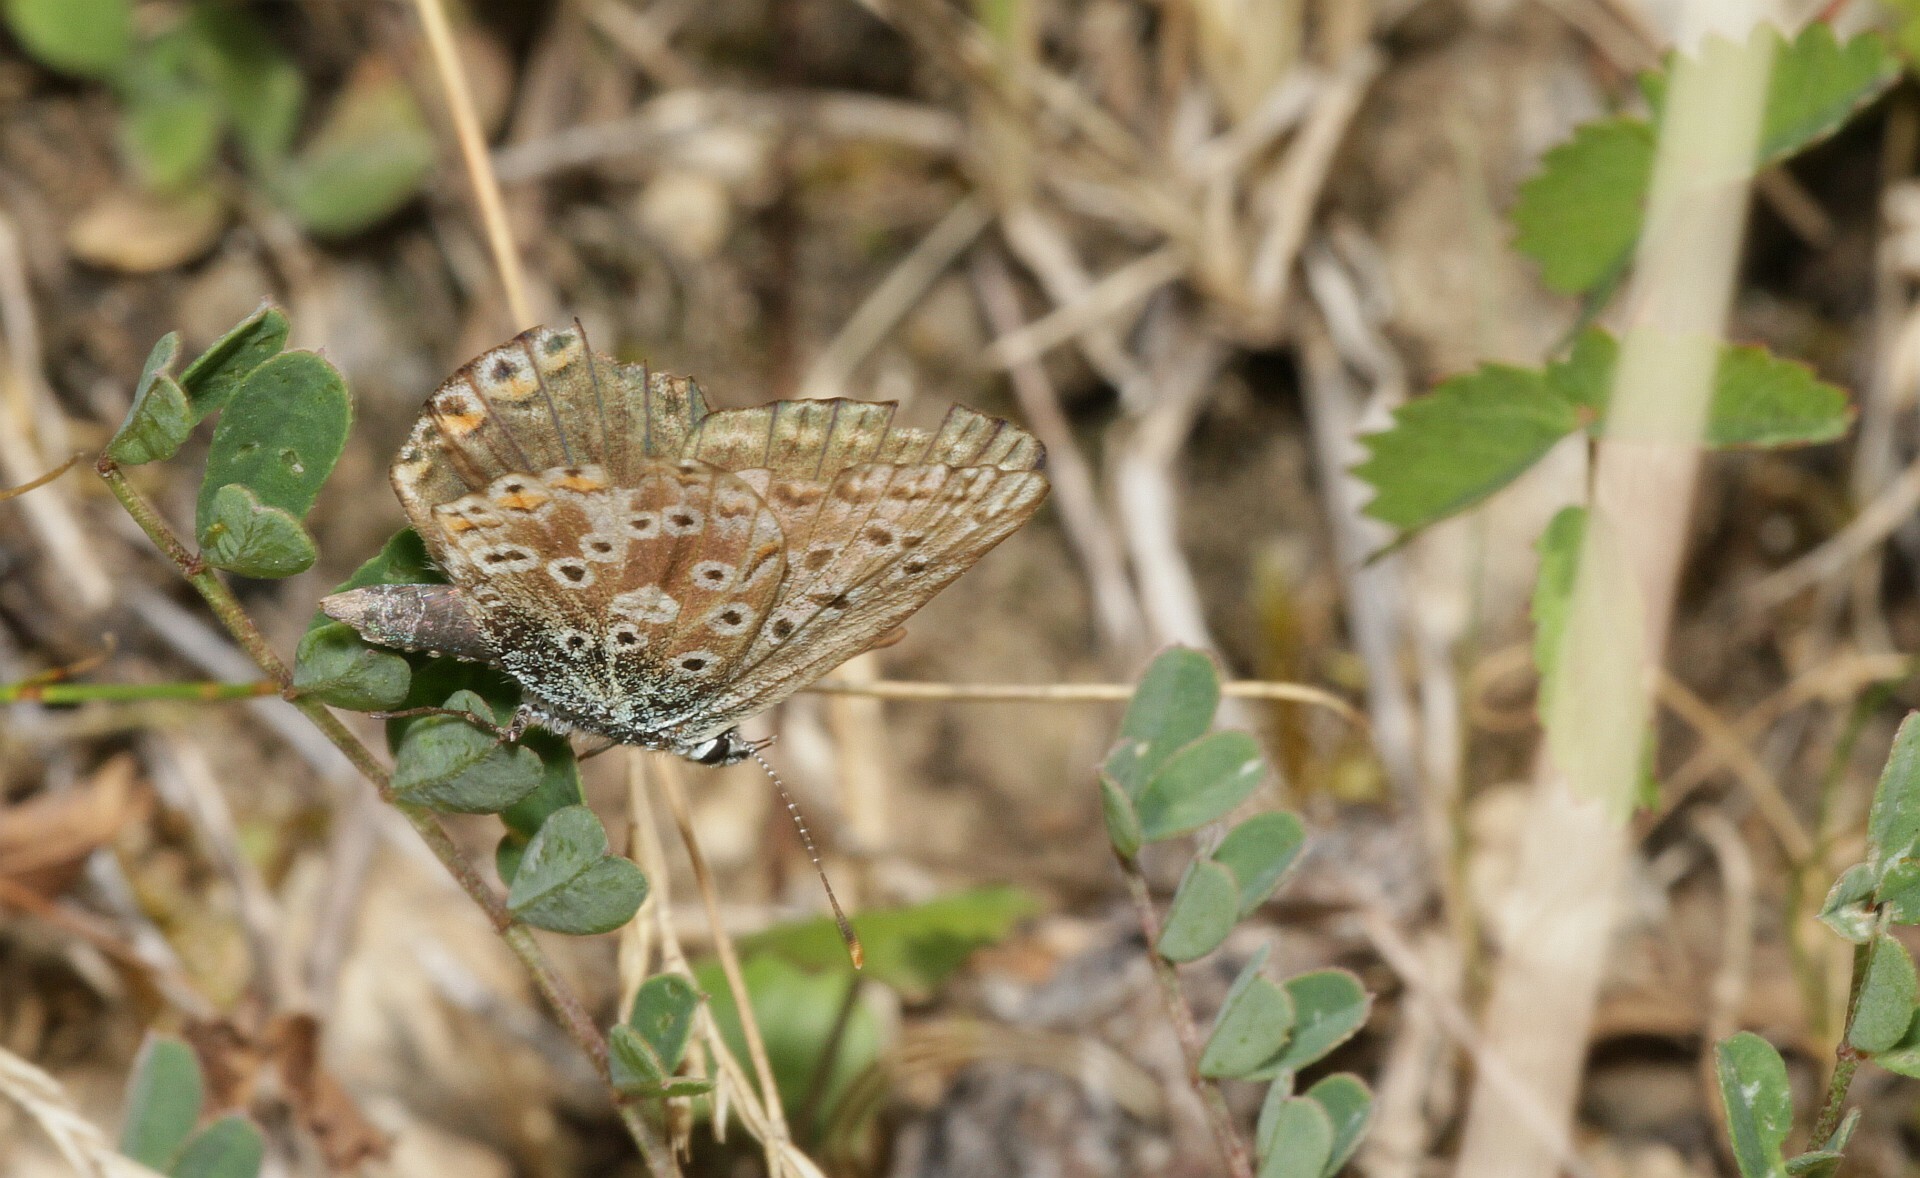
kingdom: Animalia
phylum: Arthropoda
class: Insecta
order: Lepidoptera
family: Lycaenidae
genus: Lysandra
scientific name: Lysandra coridon
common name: Chalkhill blue
